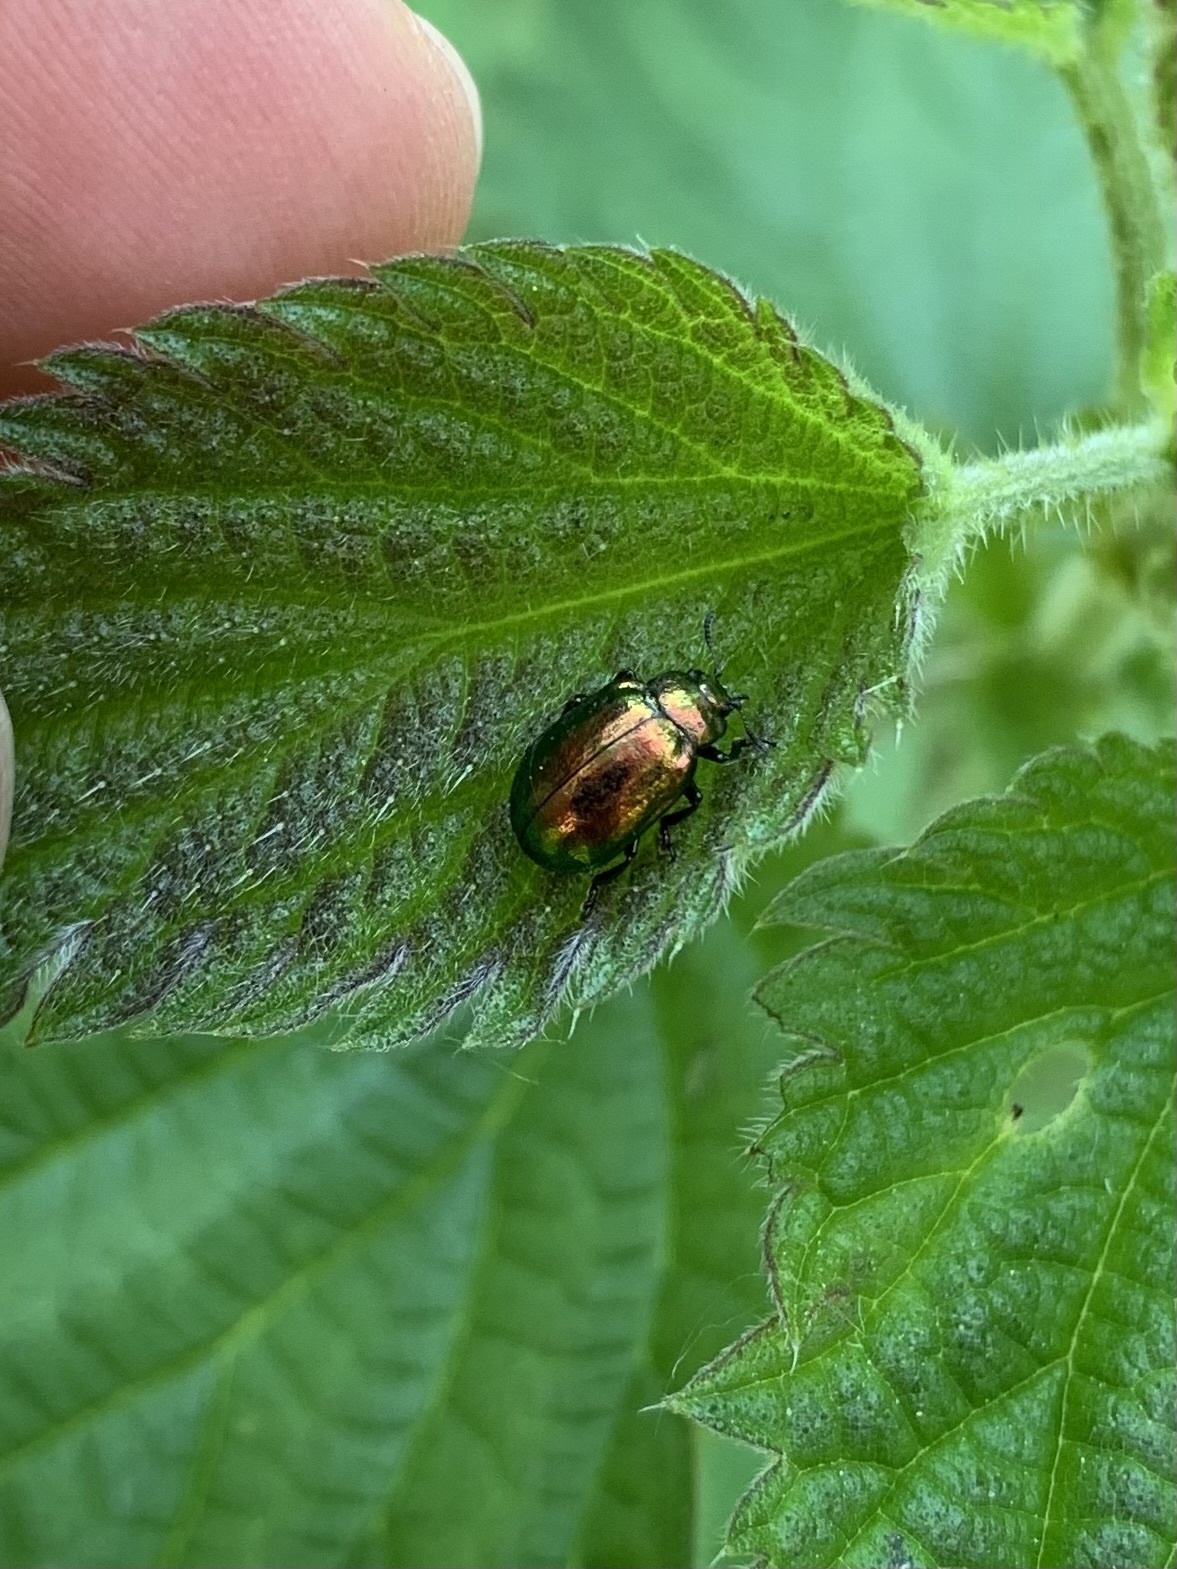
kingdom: Animalia
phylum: Arthropoda
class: Insecta
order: Coleoptera
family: Chrysomelidae
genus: Plagiosterna
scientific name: Plagiosterna aenea
